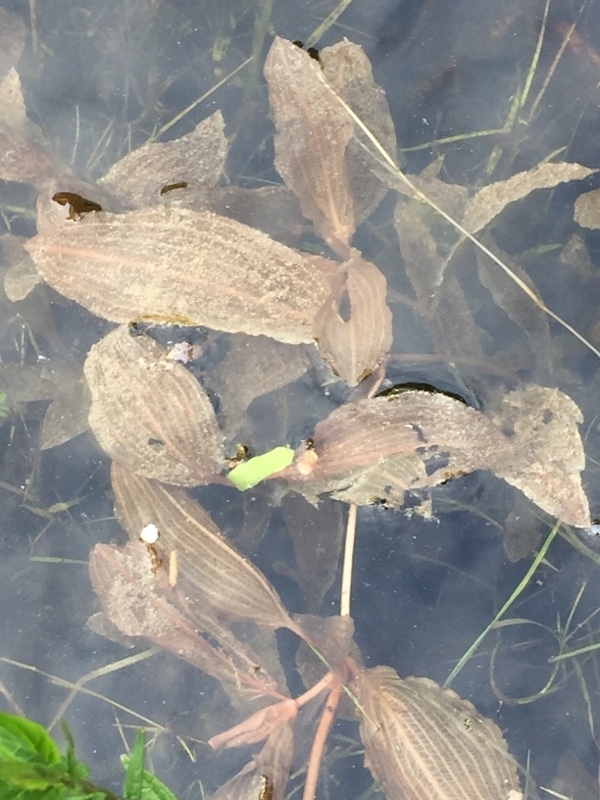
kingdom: Plantae
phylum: Tracheophyta
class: Liliopsida
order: Alismatales
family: Potamogetonaceae
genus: Potamogeton
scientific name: Potamogeton coloratus
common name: Fen pondweed
